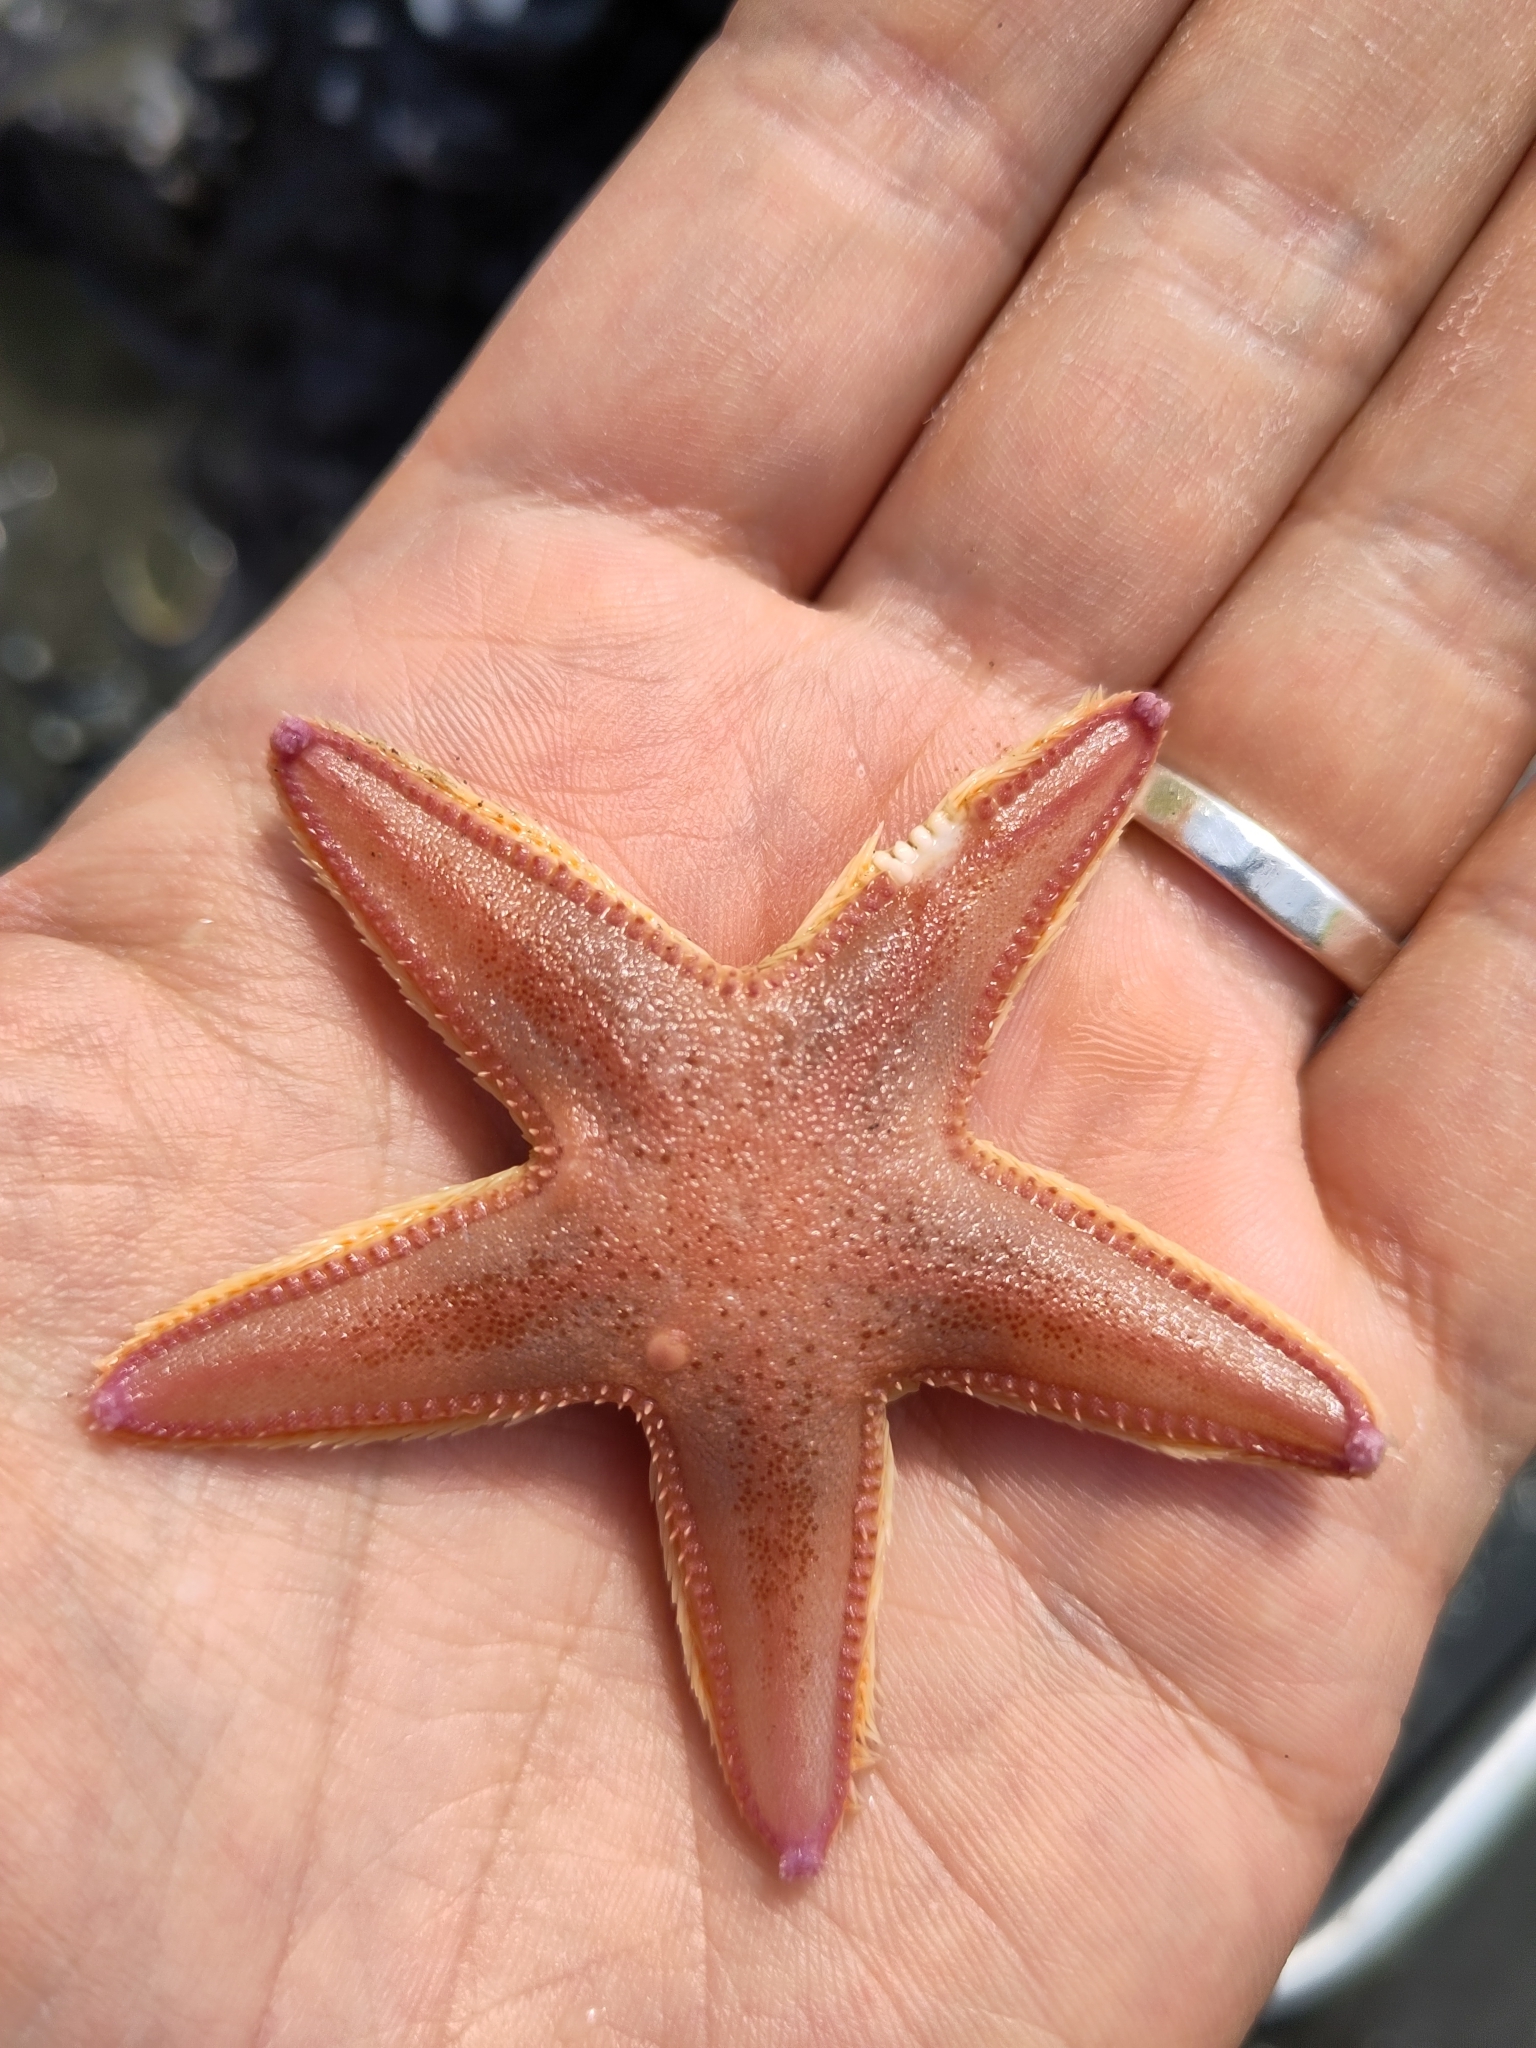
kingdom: Animalia
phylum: Echinodermata
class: Asteroidea
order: Paxillosida
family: Astropectinidae
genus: Astropecten
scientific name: Astropecten irregularis
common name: Sand star
